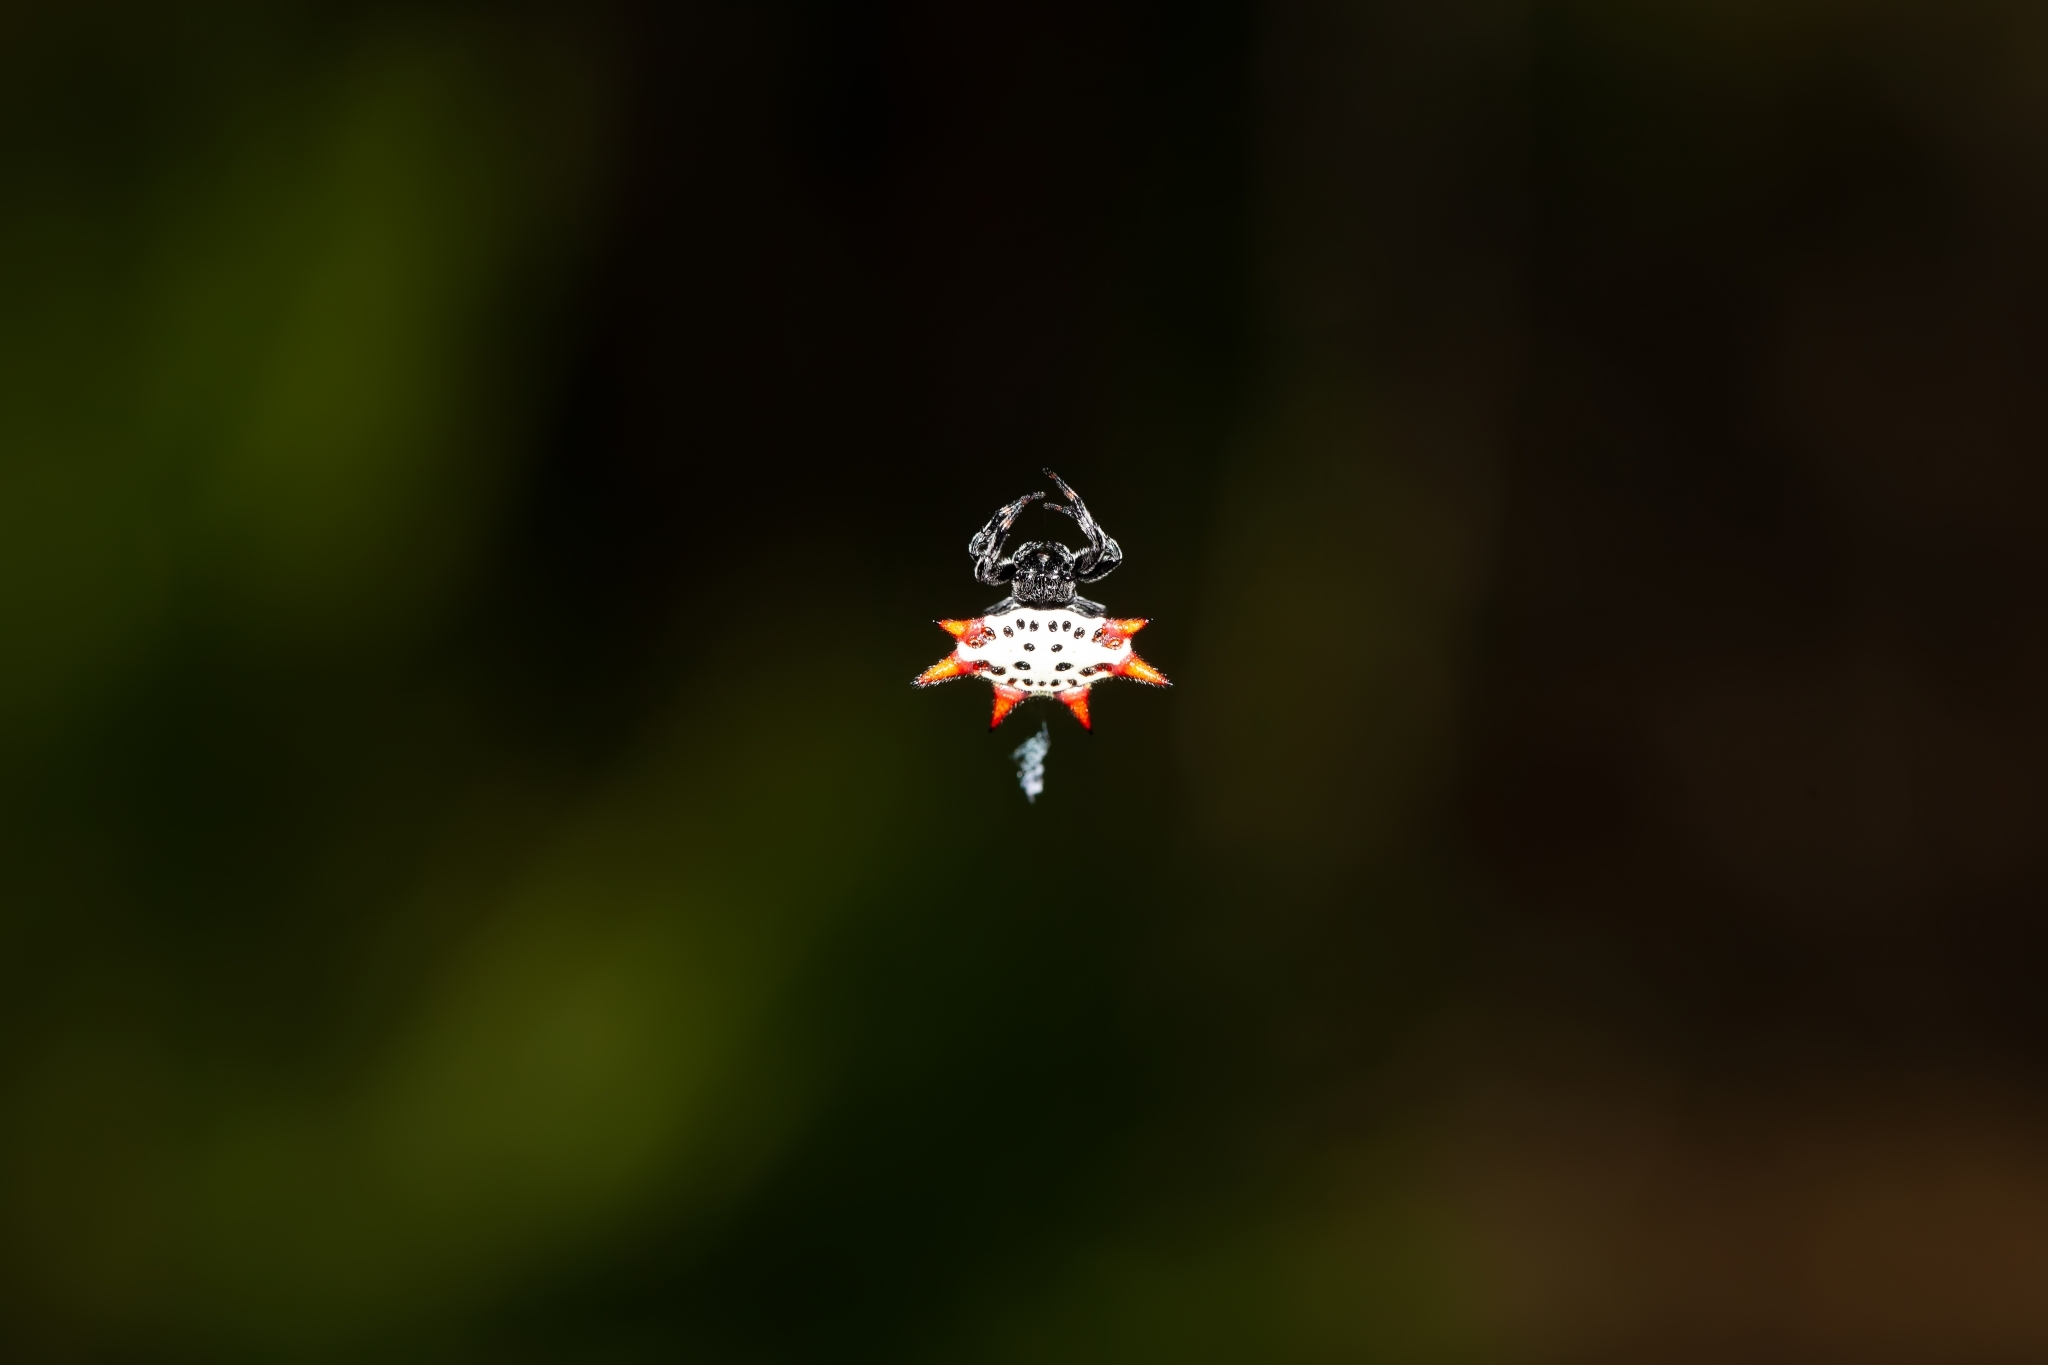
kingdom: Animalia
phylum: Arthropoda
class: Arachnida
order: Araneae
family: Araneidae
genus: Gasteracantha
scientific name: Gasteracantha cancriformis
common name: Orb weavers
